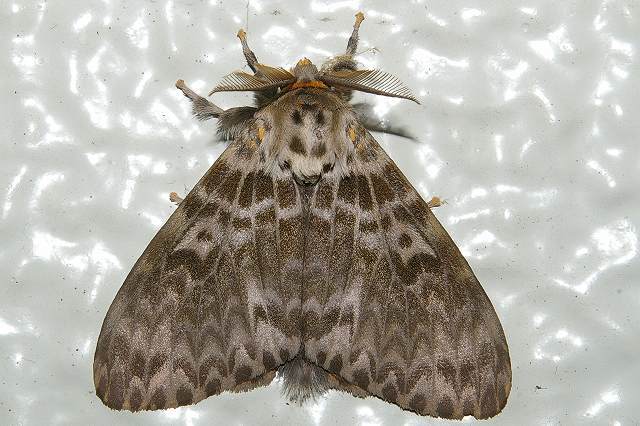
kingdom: Animalia
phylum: Arthropoda
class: Insecta
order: Lepidoptera
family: Erebidae
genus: Lymantria
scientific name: Lymantria mathura
